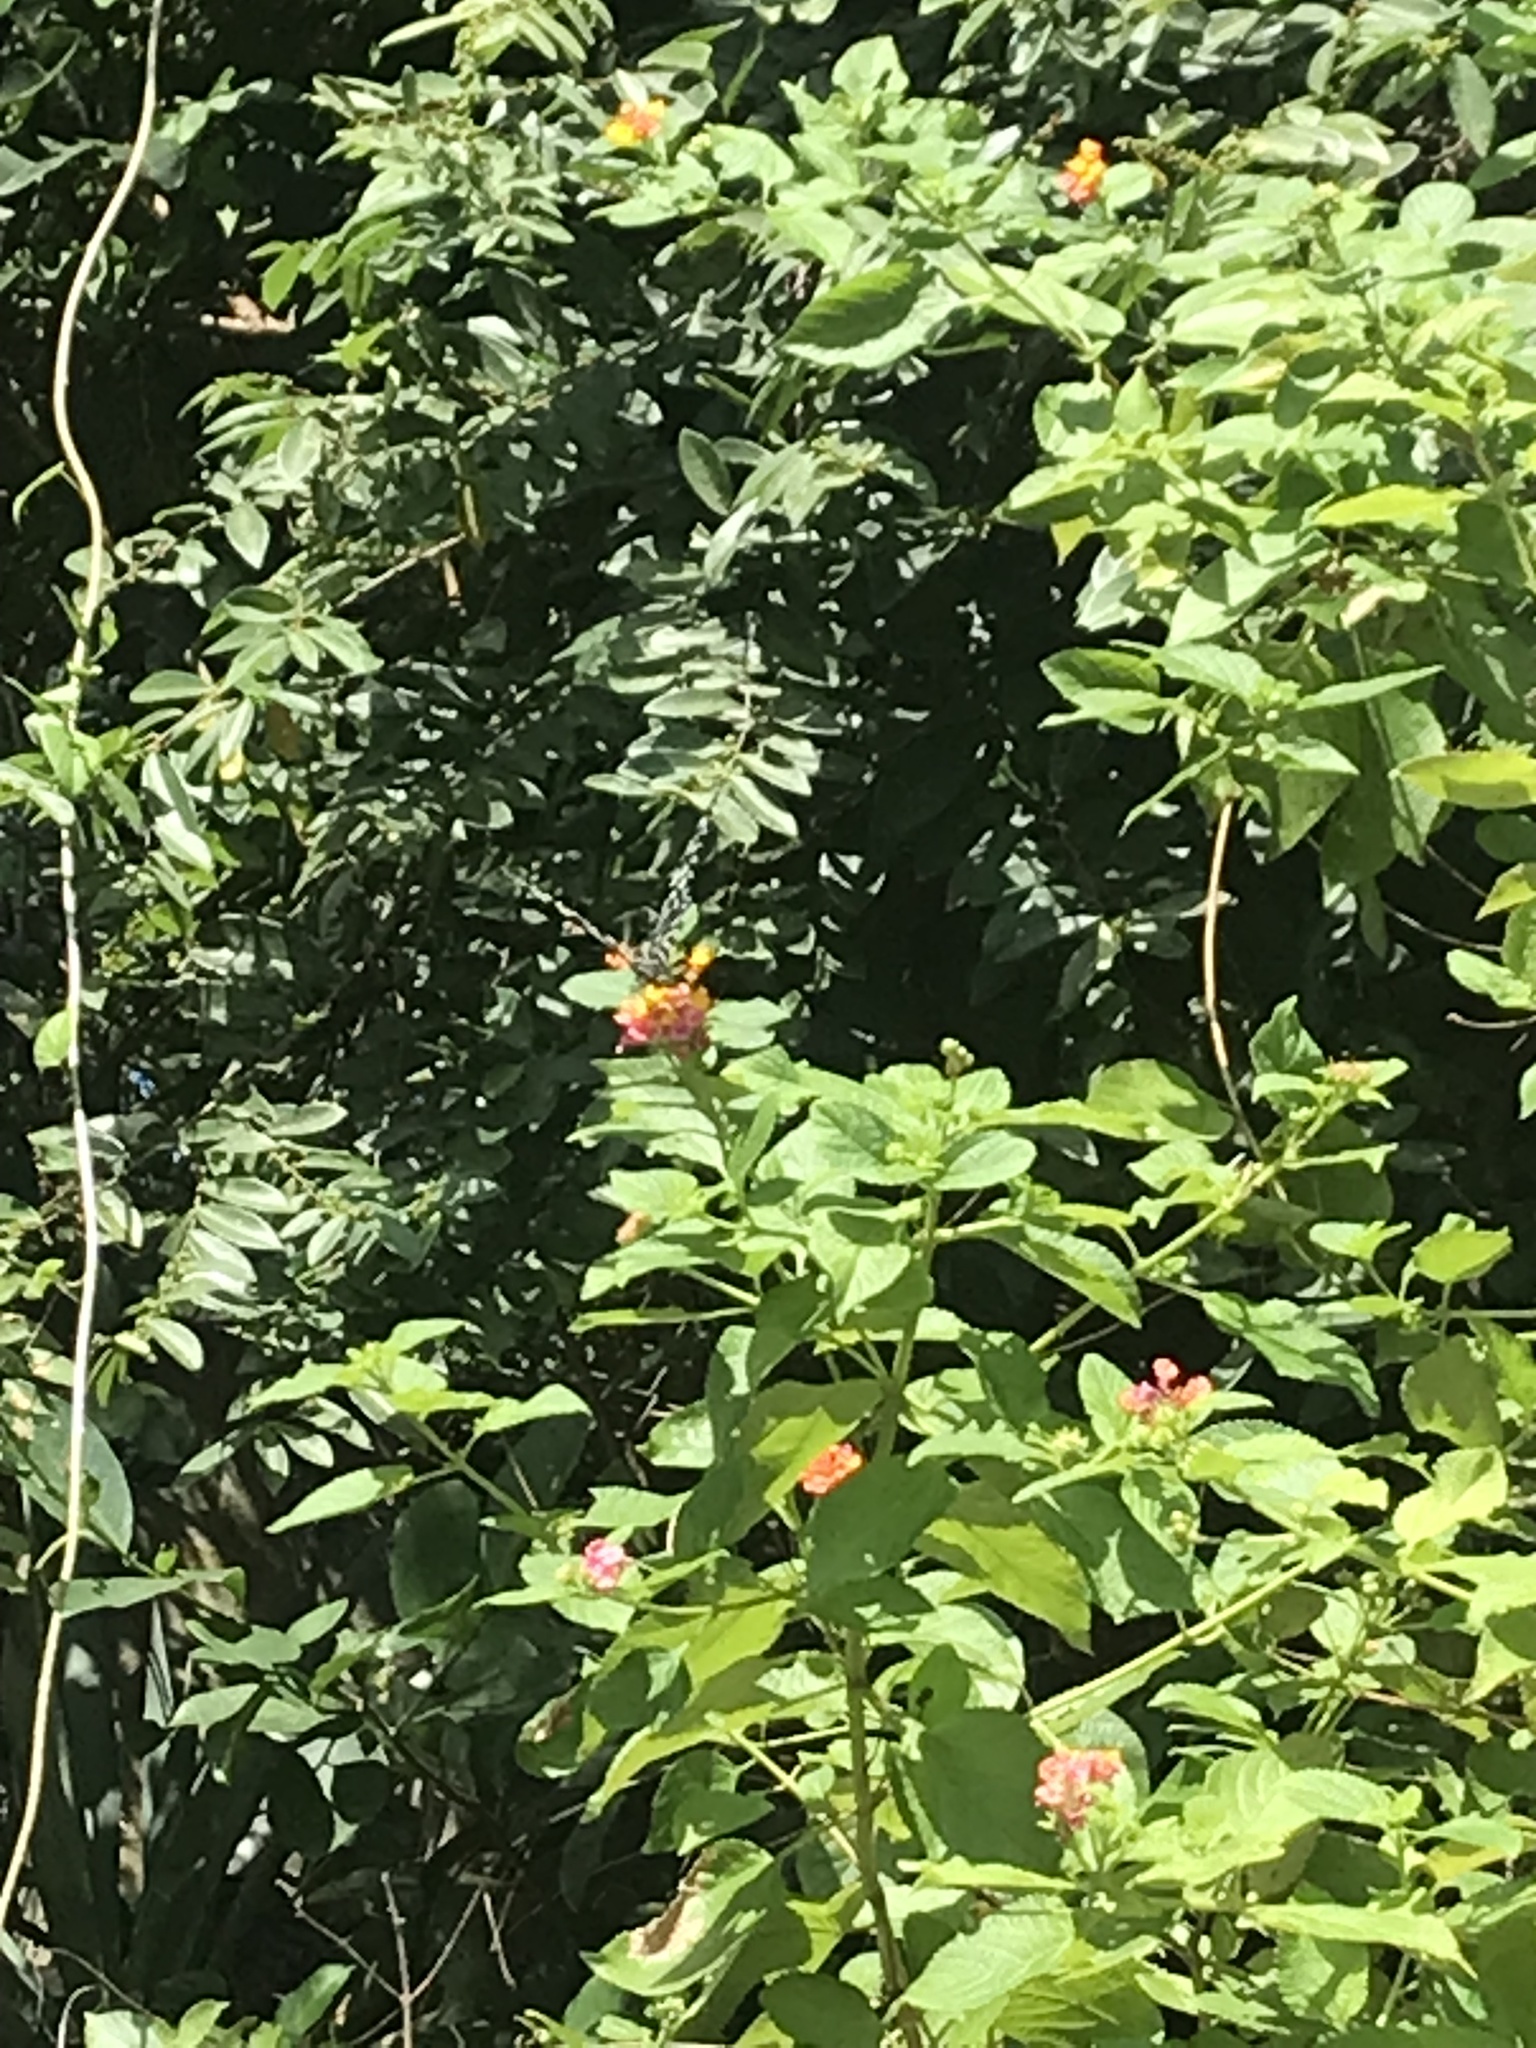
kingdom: Animalia
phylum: Arthropoda
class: Insecta
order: Lepidoptera
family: Papilionidae
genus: Chilasa
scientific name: Chilasa clytia
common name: Common mime
